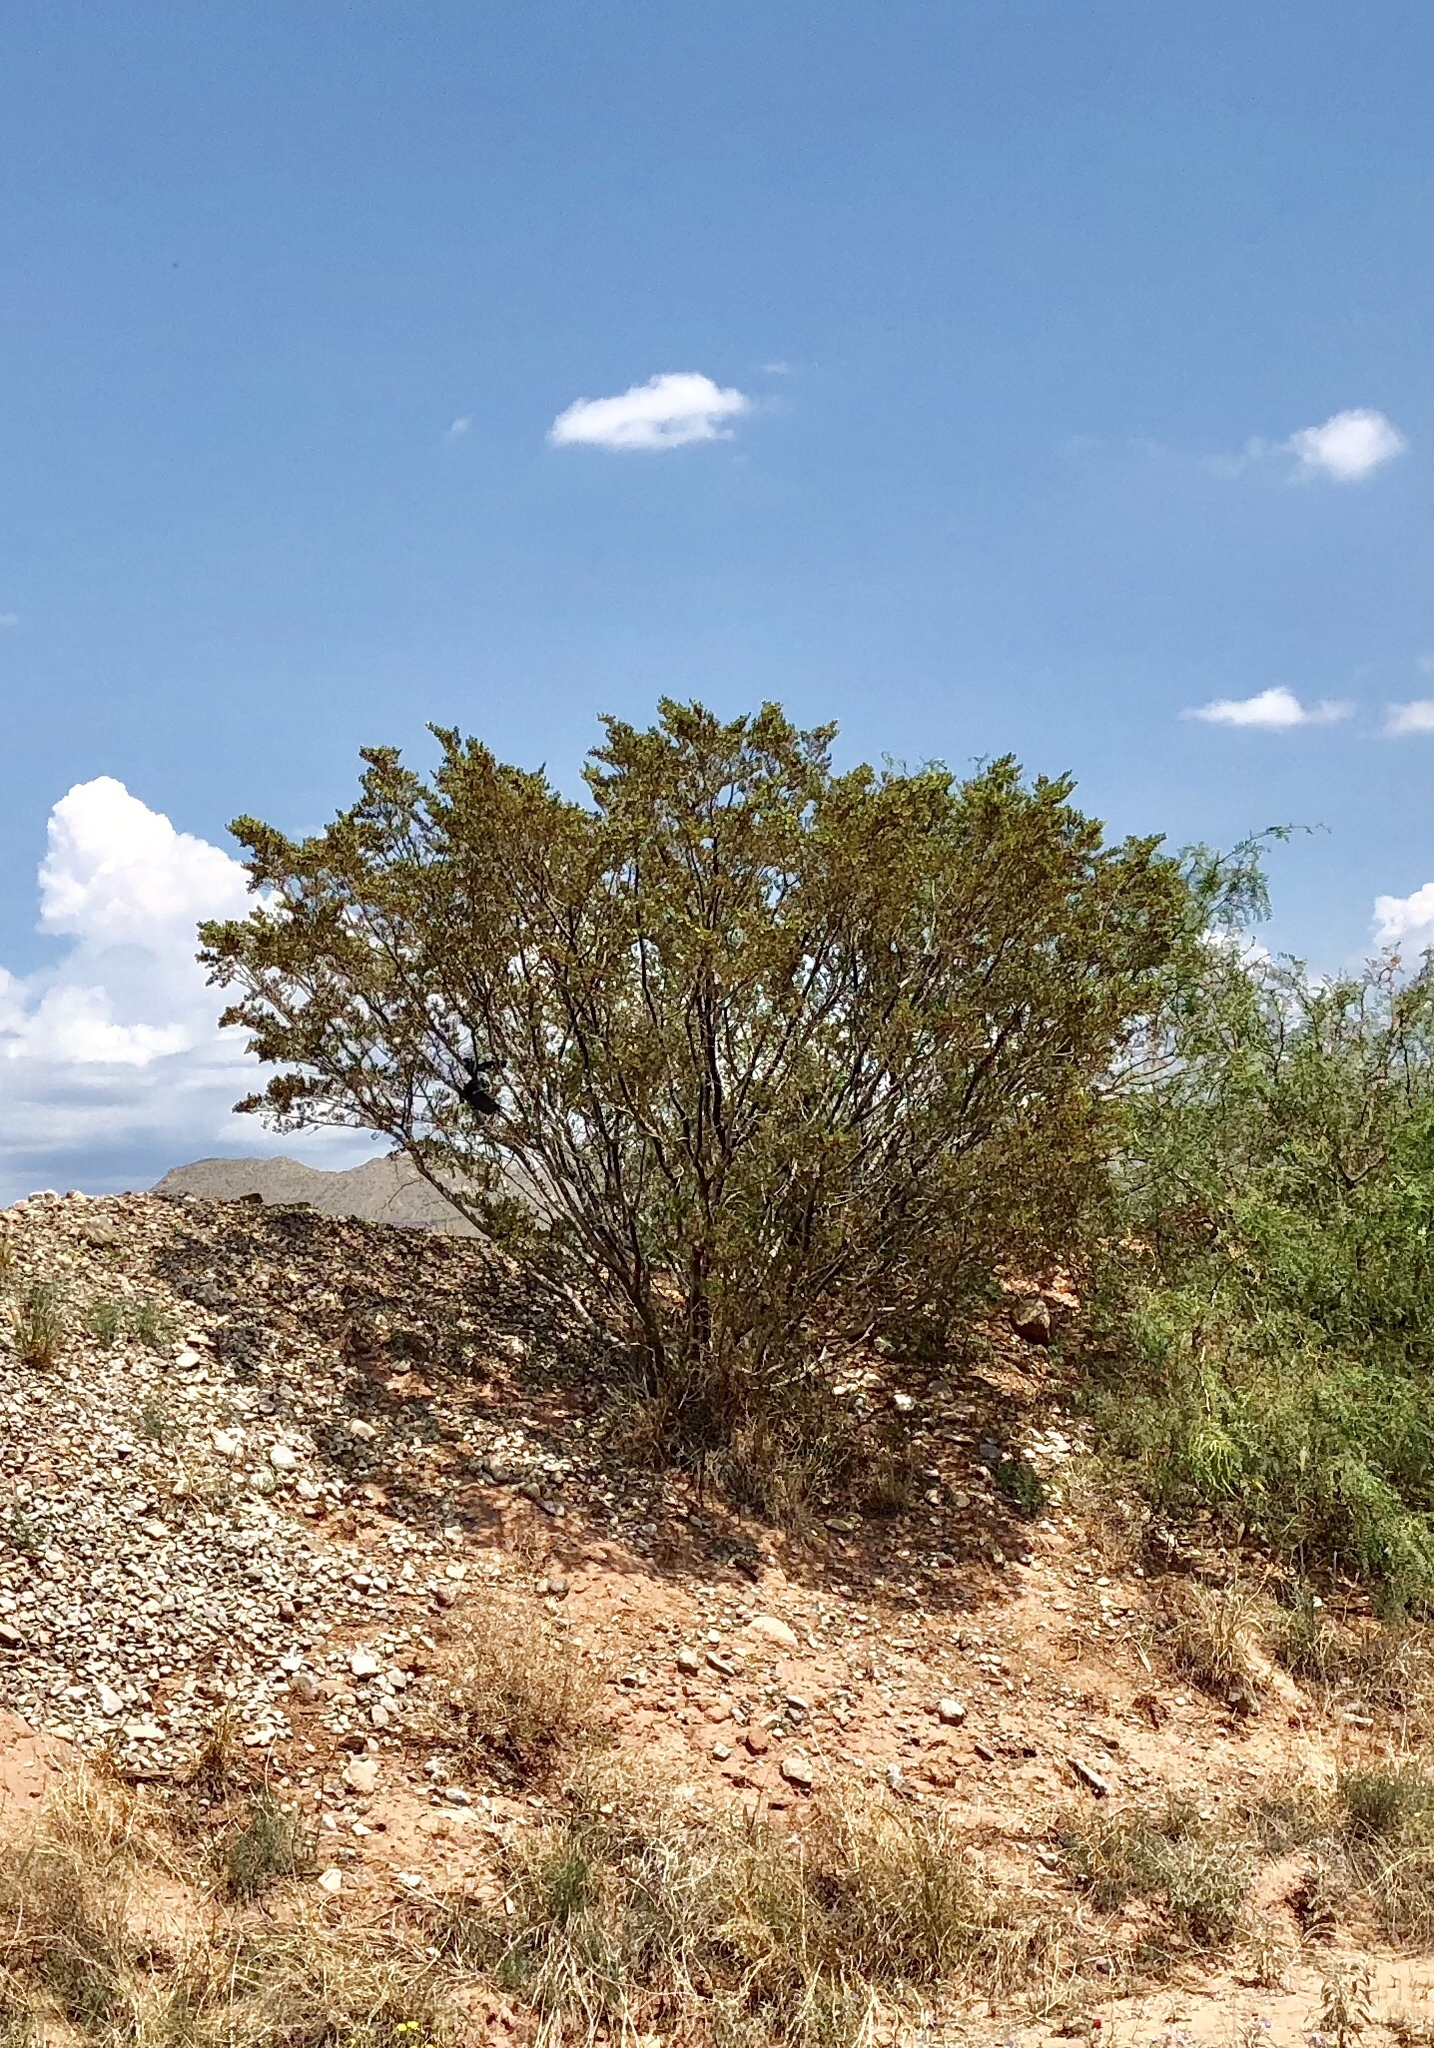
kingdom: Plantae
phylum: Tracheophyta
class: Magnoliopsida
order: Zygophyllales
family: Zygophyllaceae
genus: Larrea
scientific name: Larrea tridentata
